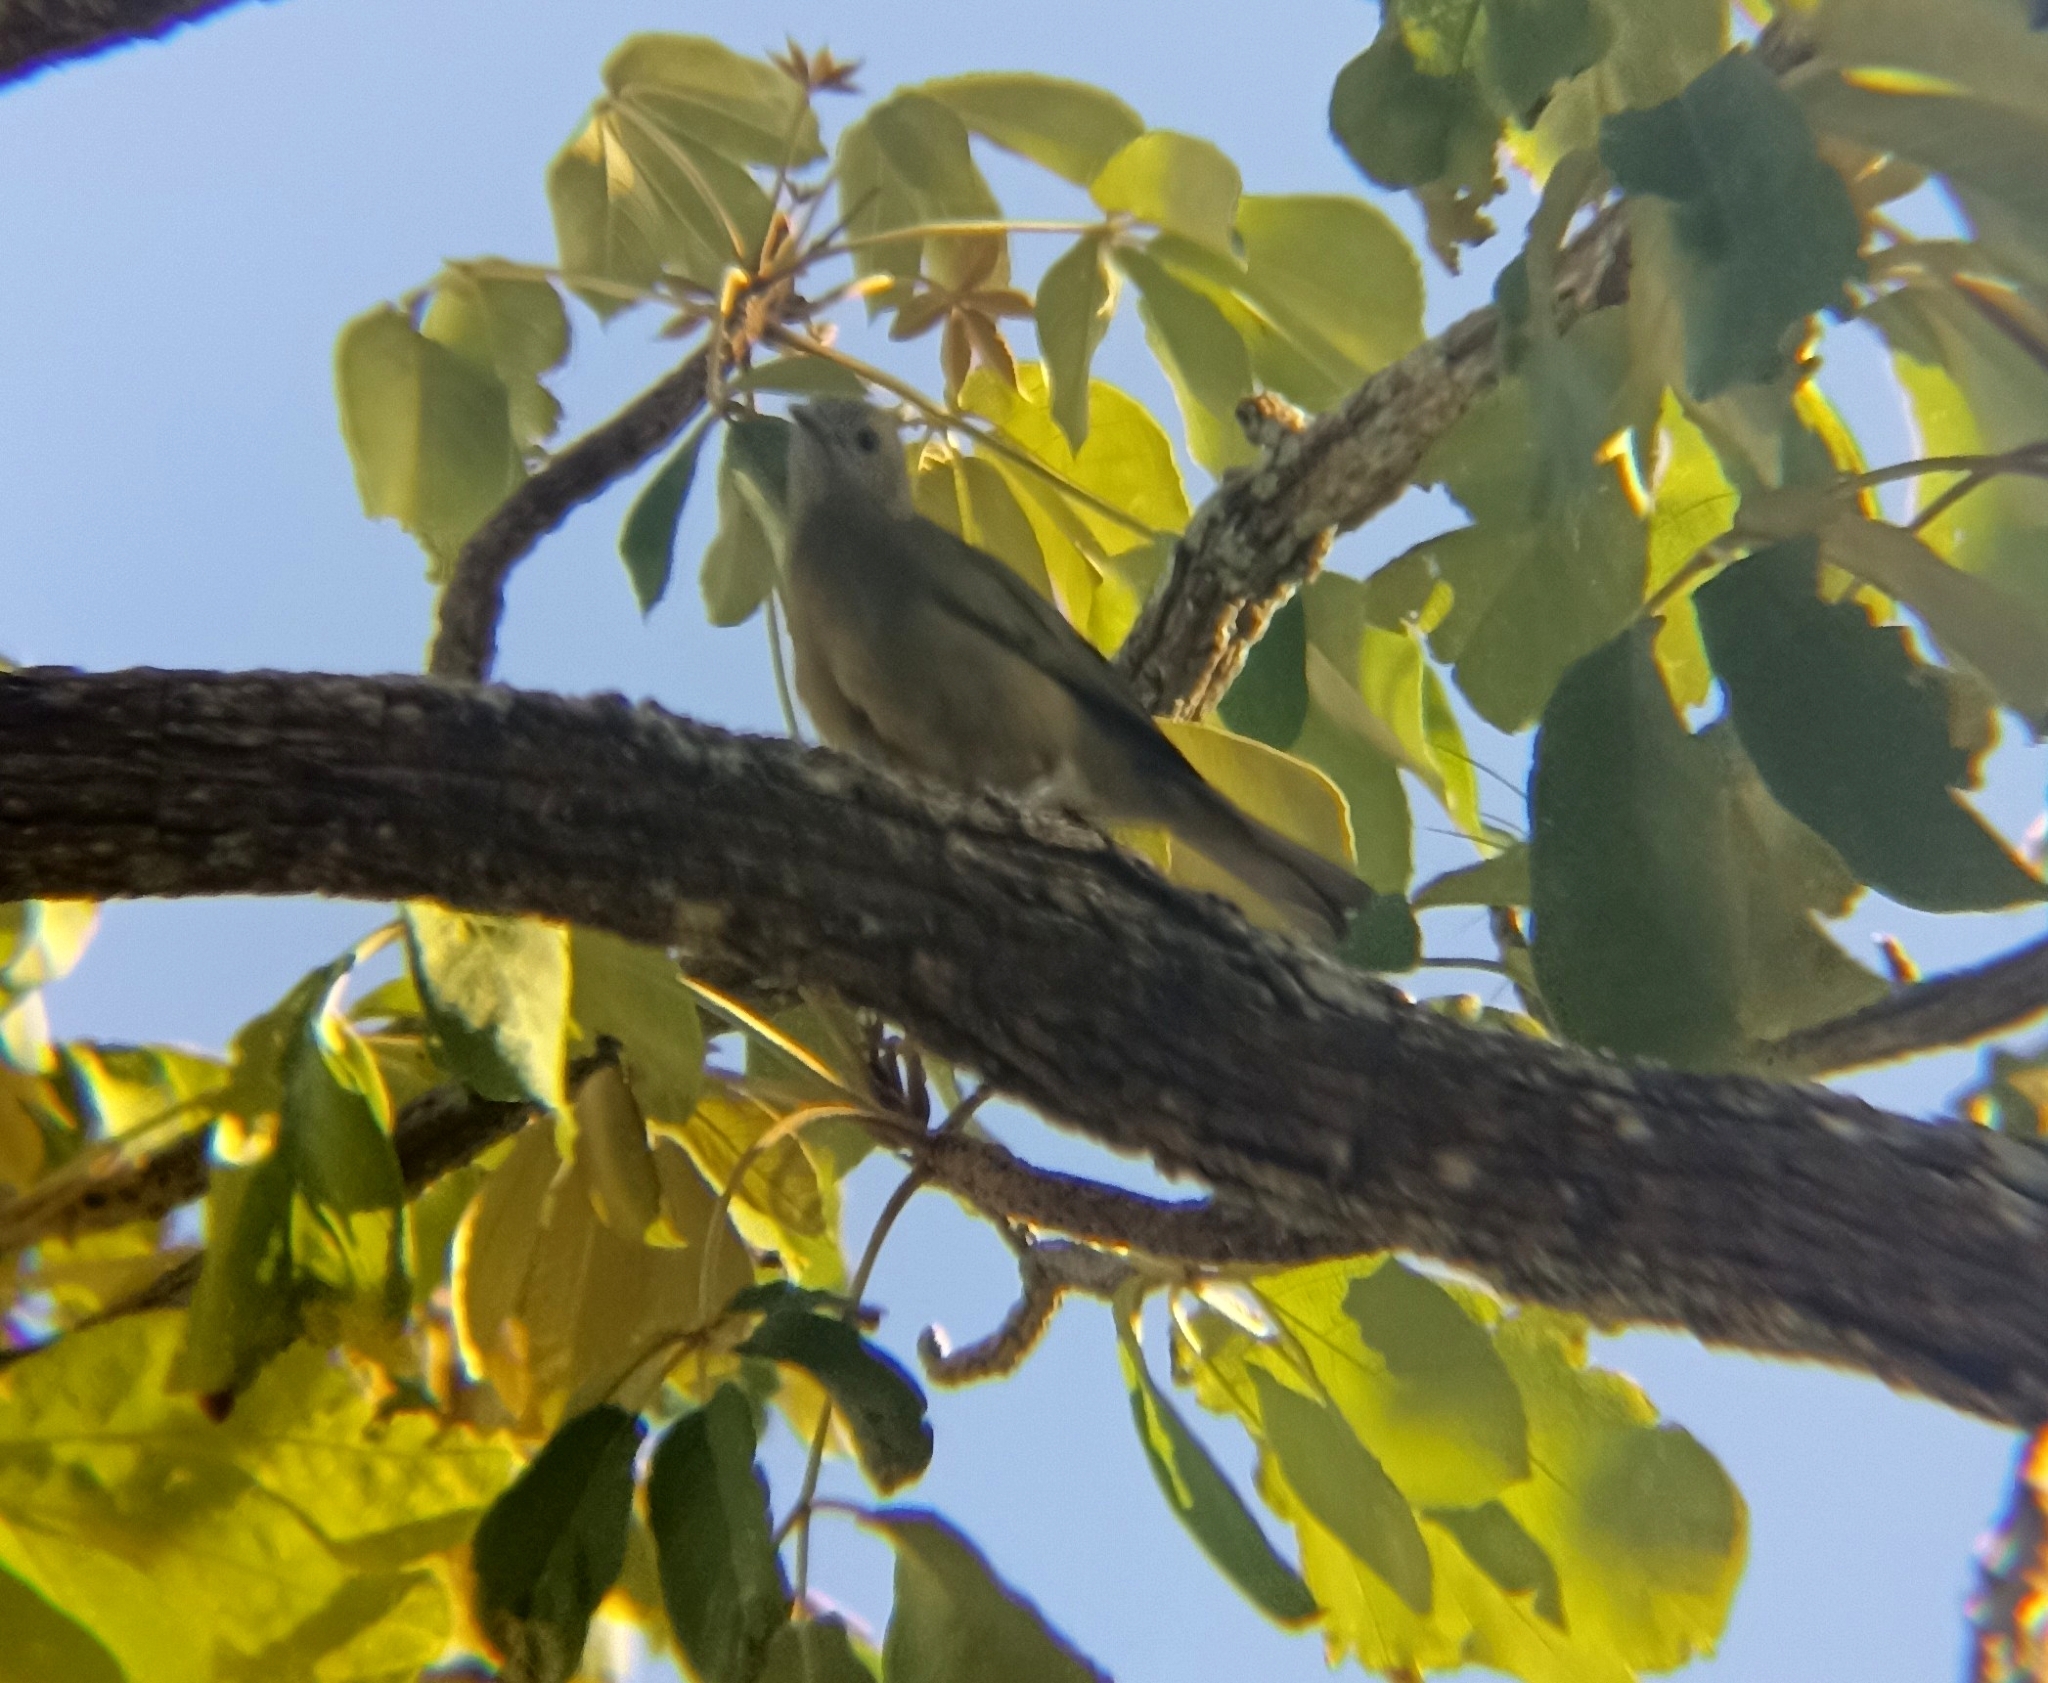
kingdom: Animalia
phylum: Chordata
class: Aves
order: Passeriformes
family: Thraupidae
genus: Thraupis
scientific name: Thraupis palmarum
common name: Palm tanager
